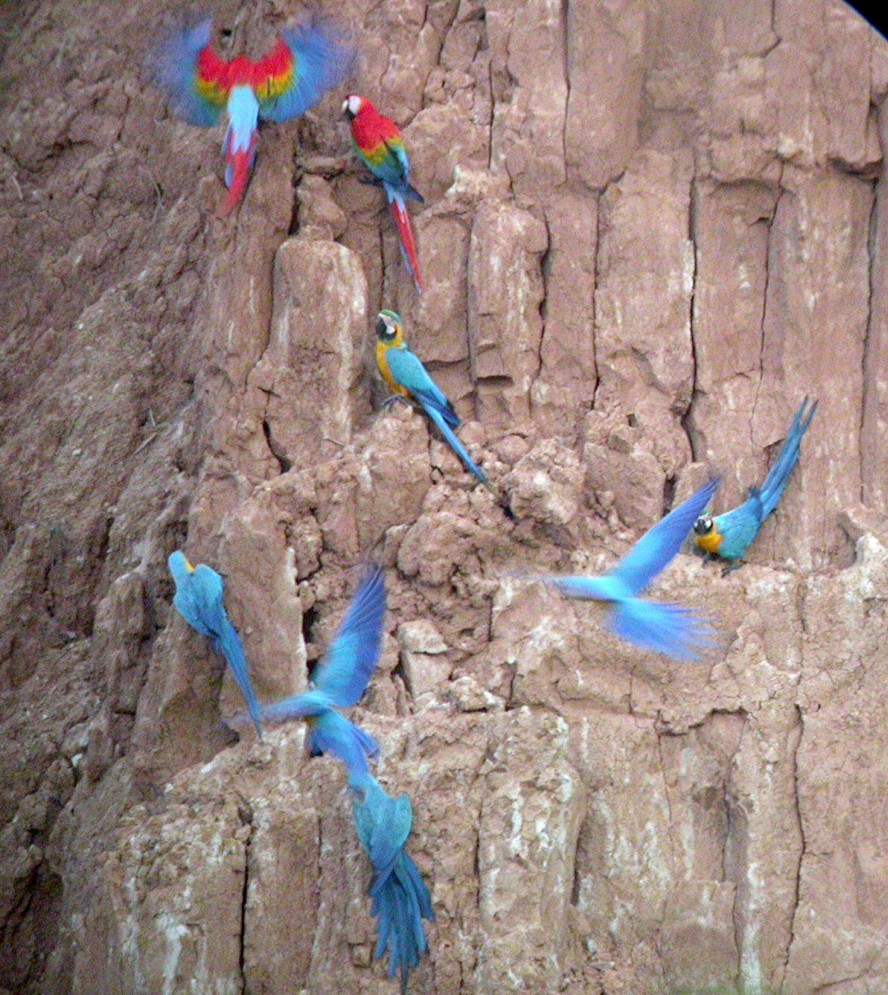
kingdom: Animalia
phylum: Chordata
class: Aves
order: Psittaciformes
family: Psittacidae
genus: Ara
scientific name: Ara ararauna
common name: Blue-and-yellow macaw
